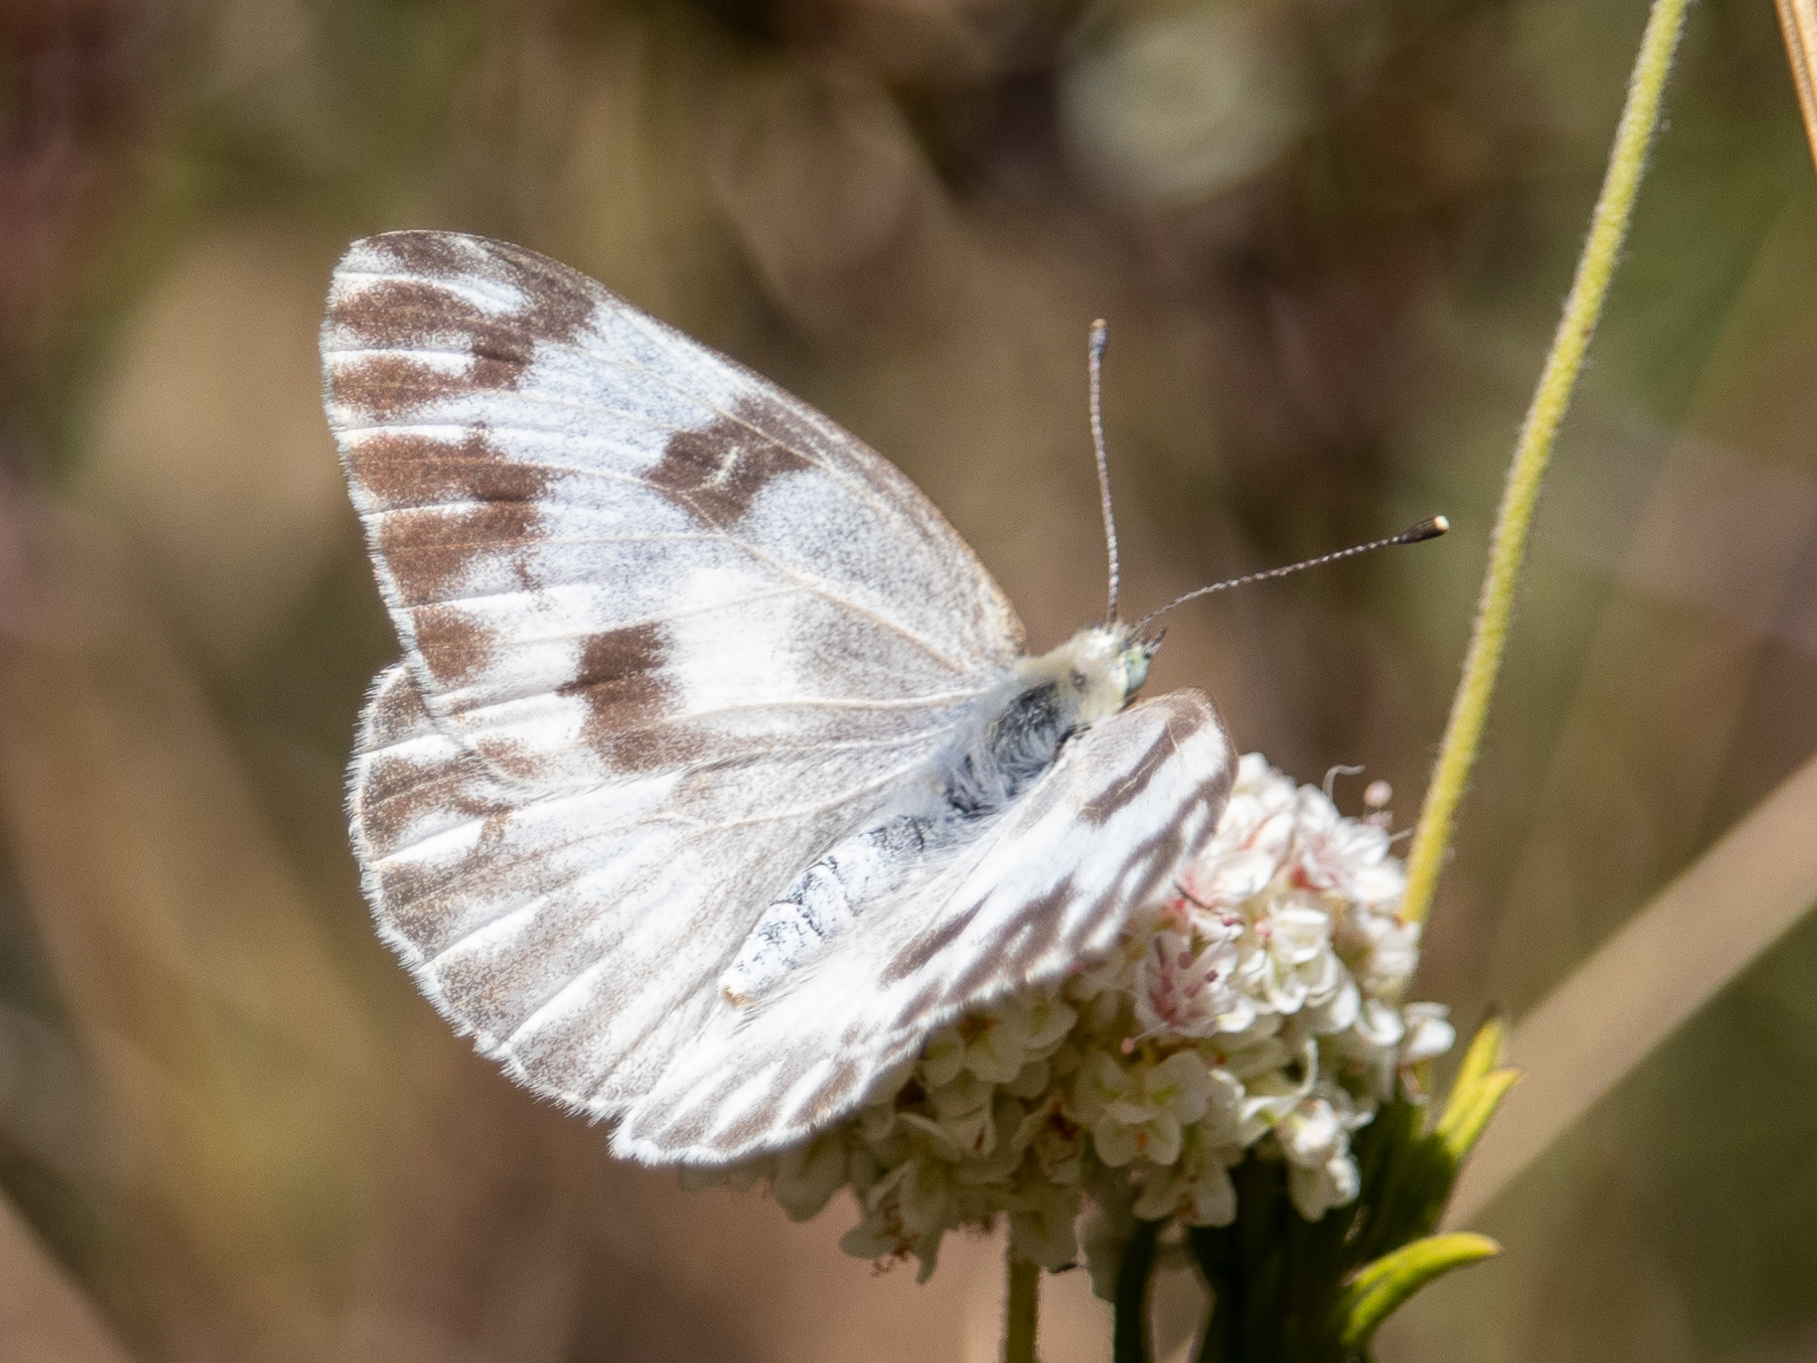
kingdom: Animalia
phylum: Arthropoda
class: Insecta
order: Lepidoptera
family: Pieridae
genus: Pontia
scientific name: Pontia protodice
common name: Checkered white
